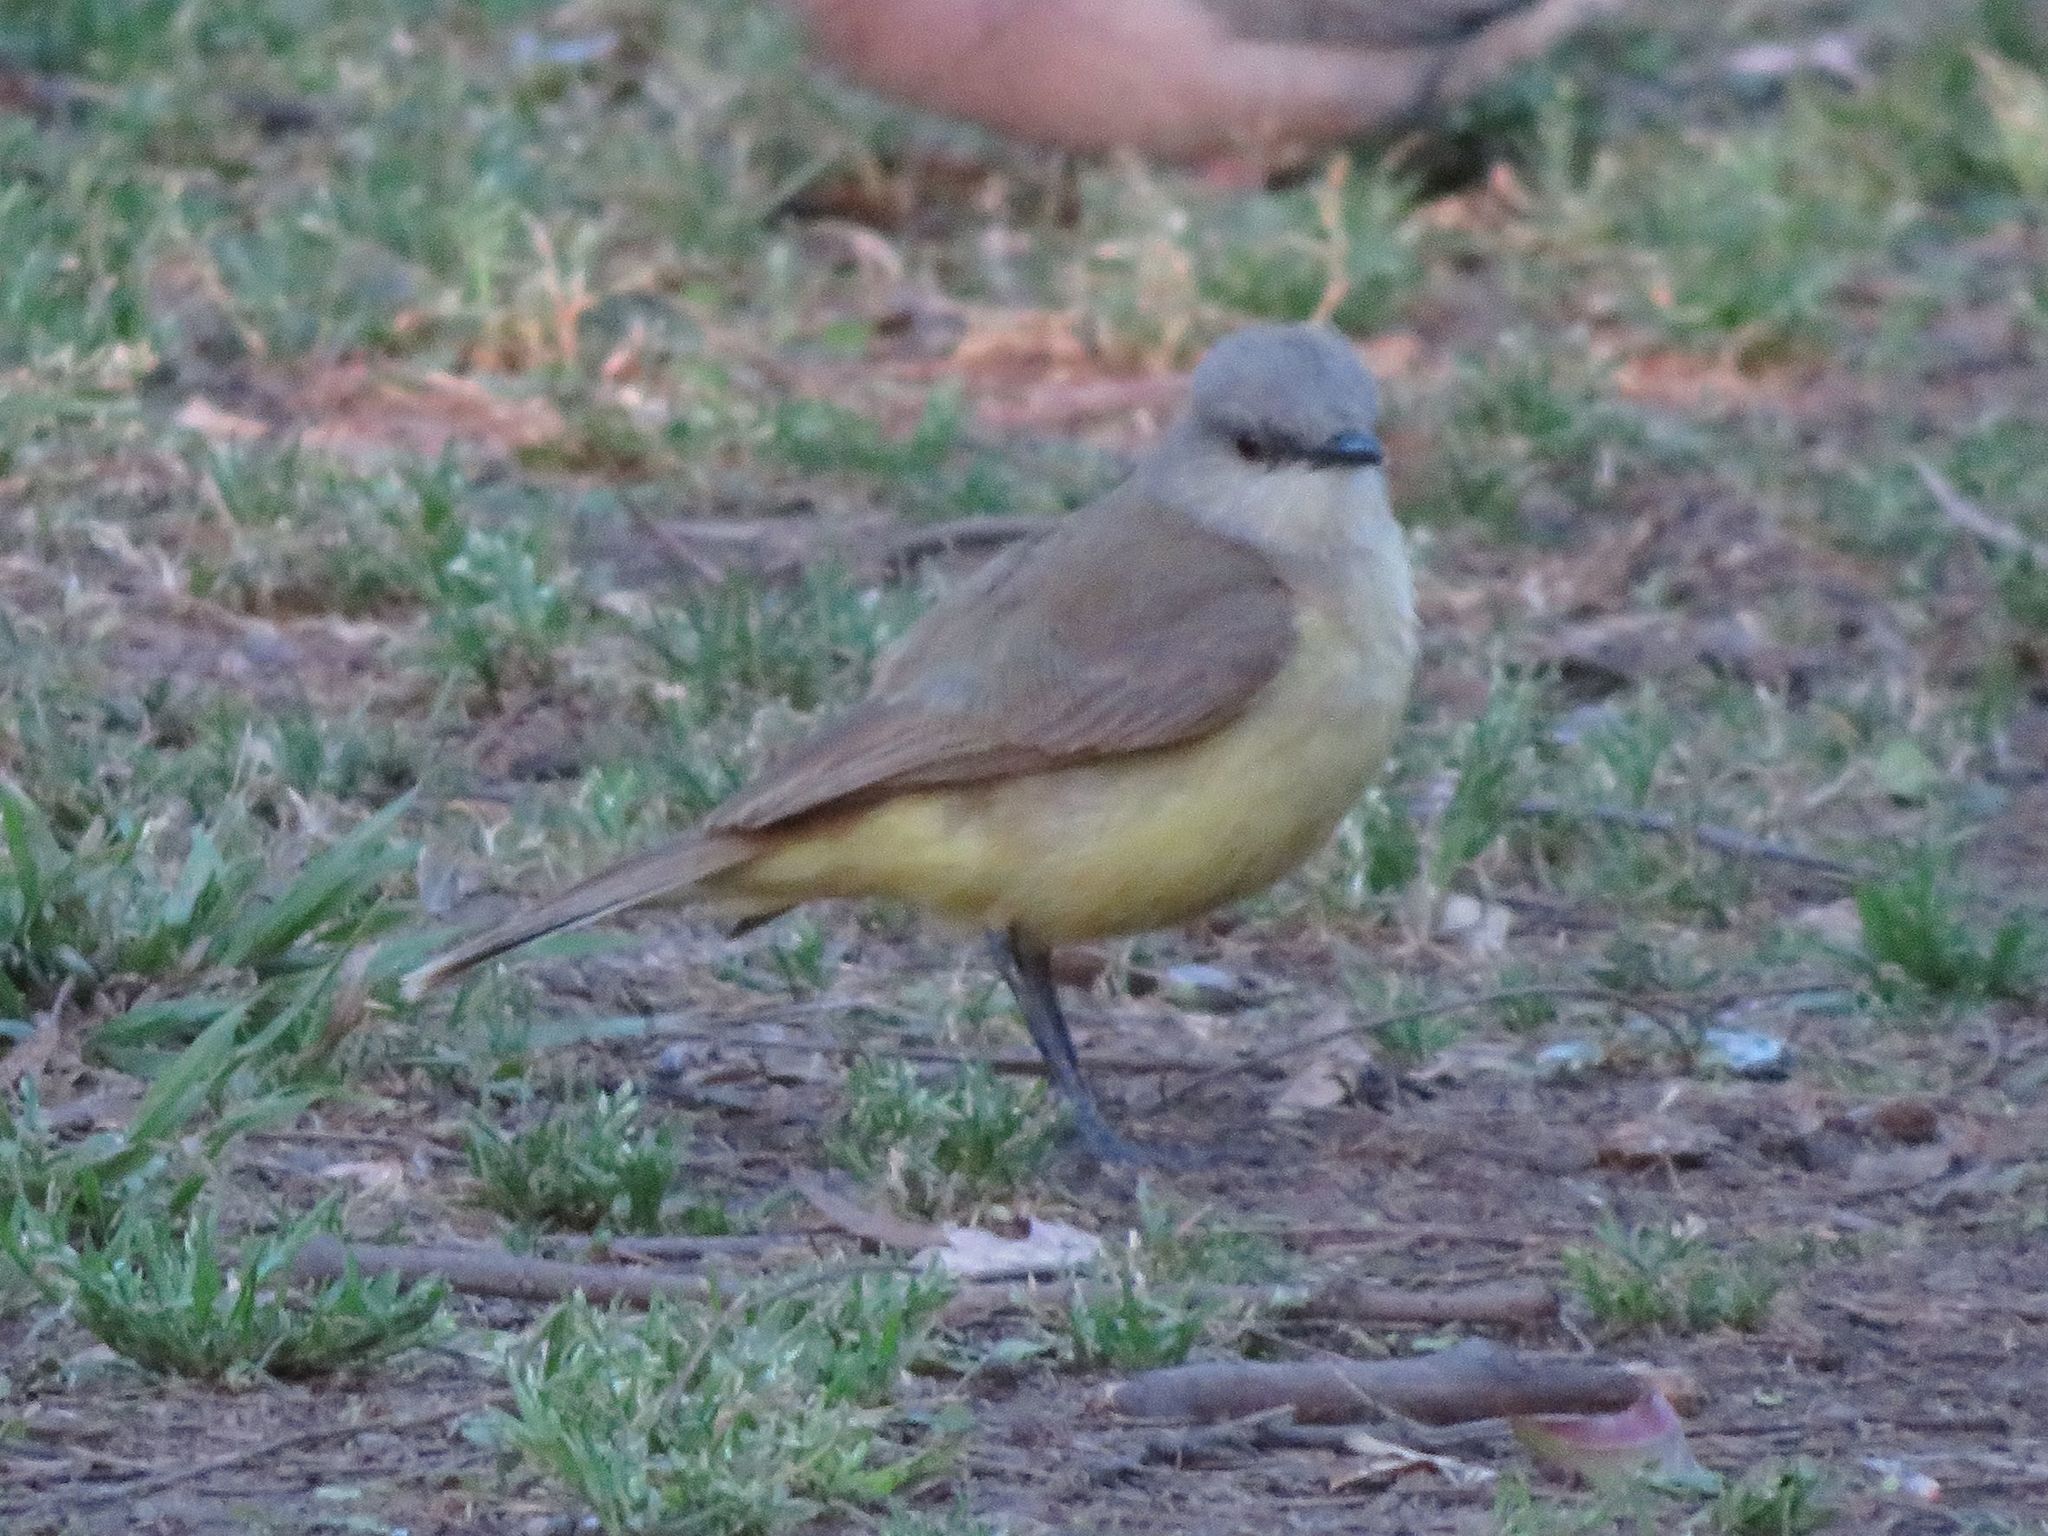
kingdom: Animalia
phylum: Chordata
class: Aves
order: Passeriformes
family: Tyrannidae
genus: Machetornis
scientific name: Machetornis rixosa
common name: Cattle tyrant
